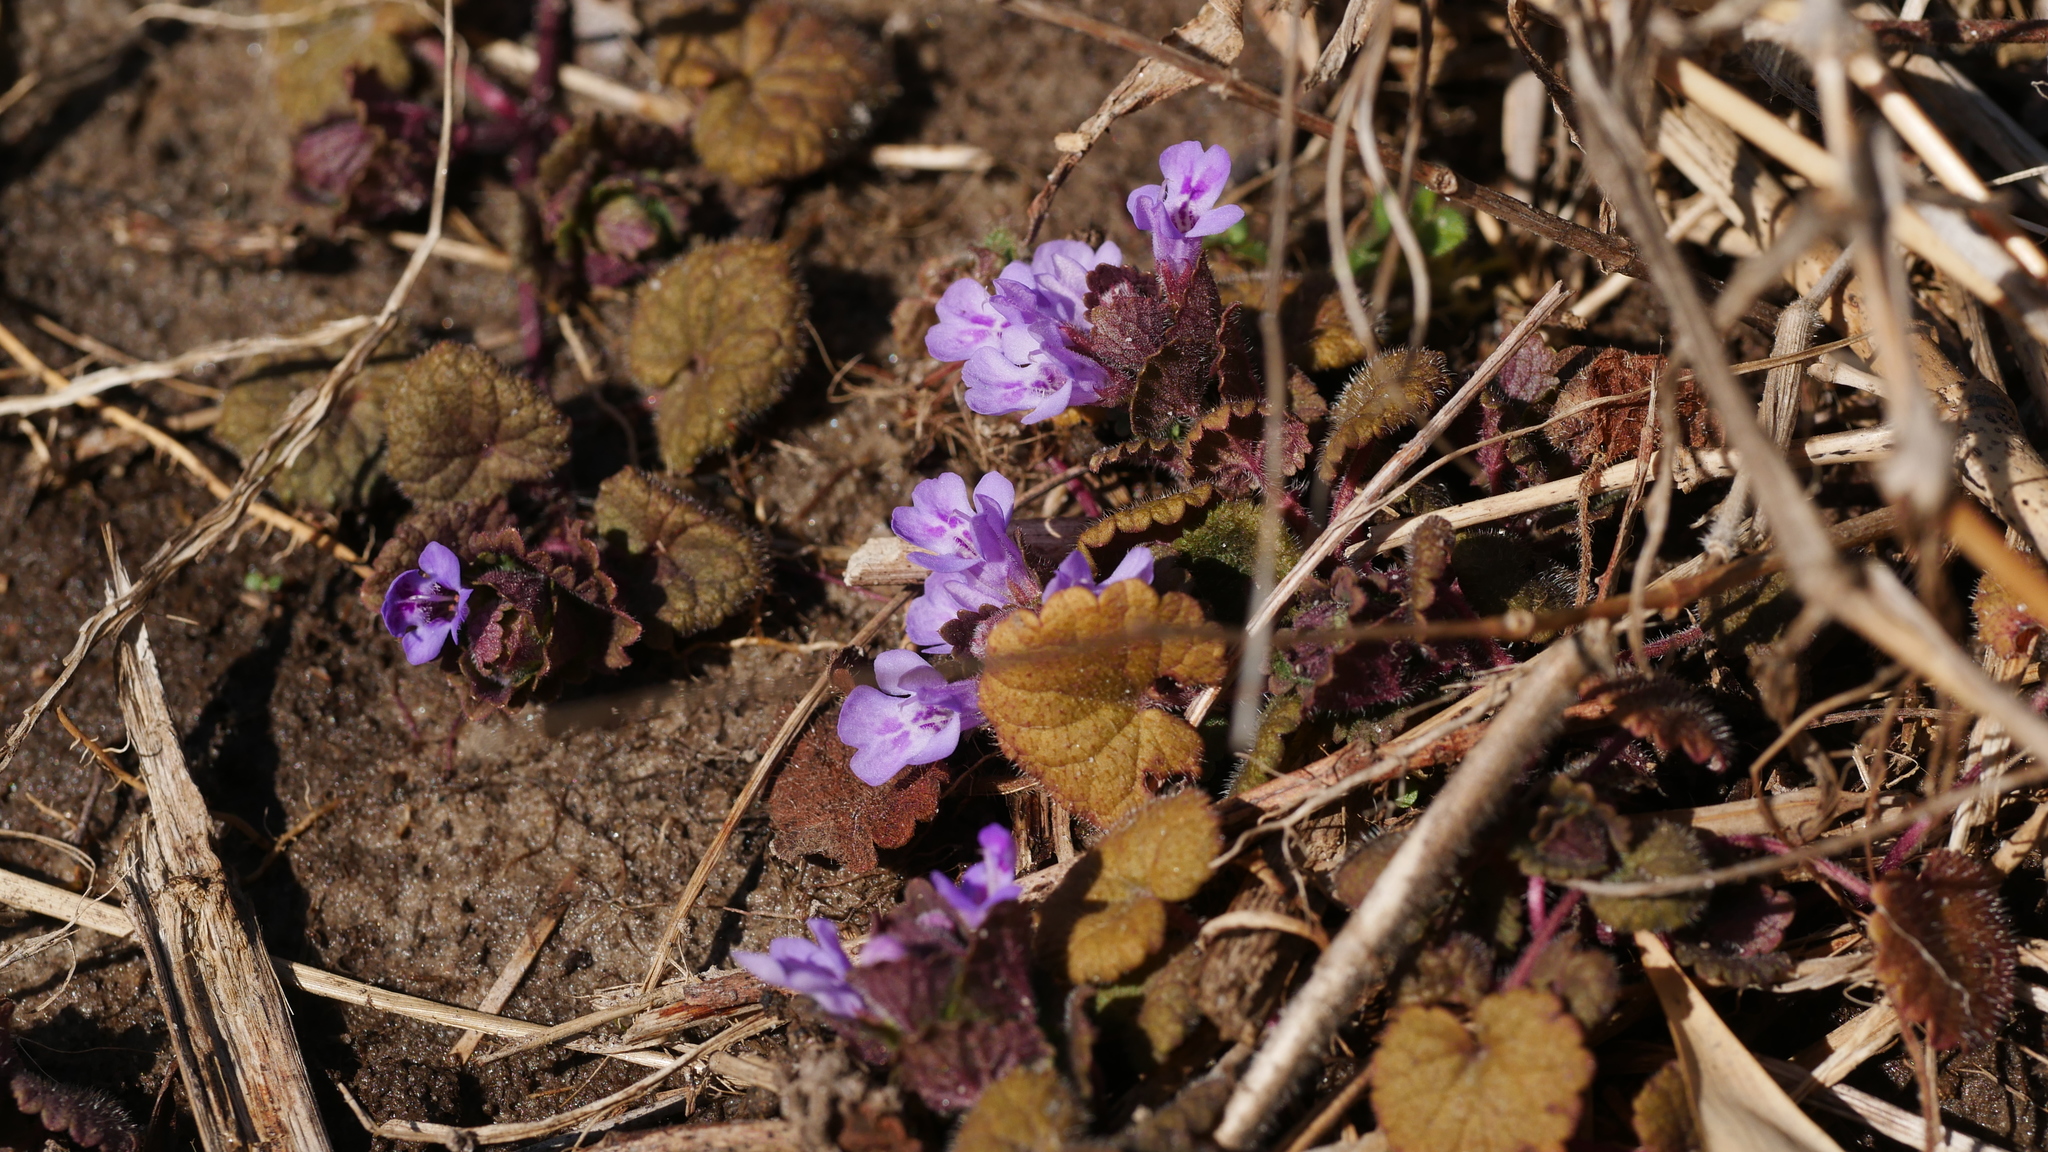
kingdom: Plantae
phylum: Tracheophyta
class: Magnoliopsida
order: Lamiales
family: Lamiaceae
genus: Glechoma
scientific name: Glechoma hederacea
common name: Ground ivy
